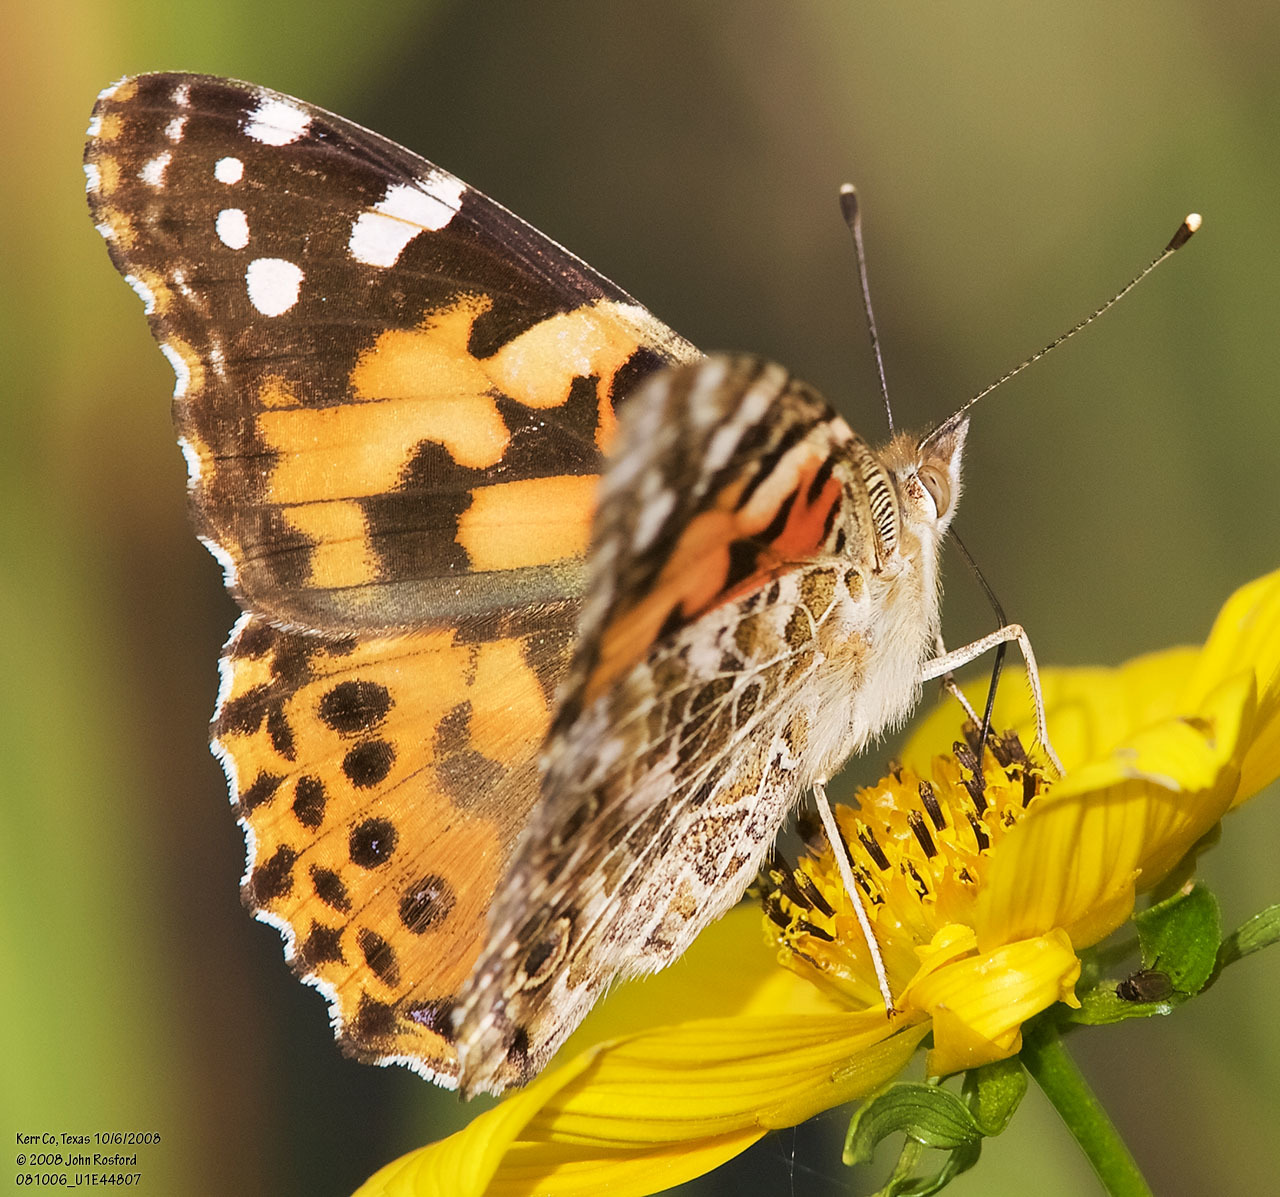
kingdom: Animalia
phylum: Arthropoda
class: Insecta
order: Lepidoptera
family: Nymphalidae
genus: Vanessa
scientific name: Vanessa cardui
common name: Painted lady
